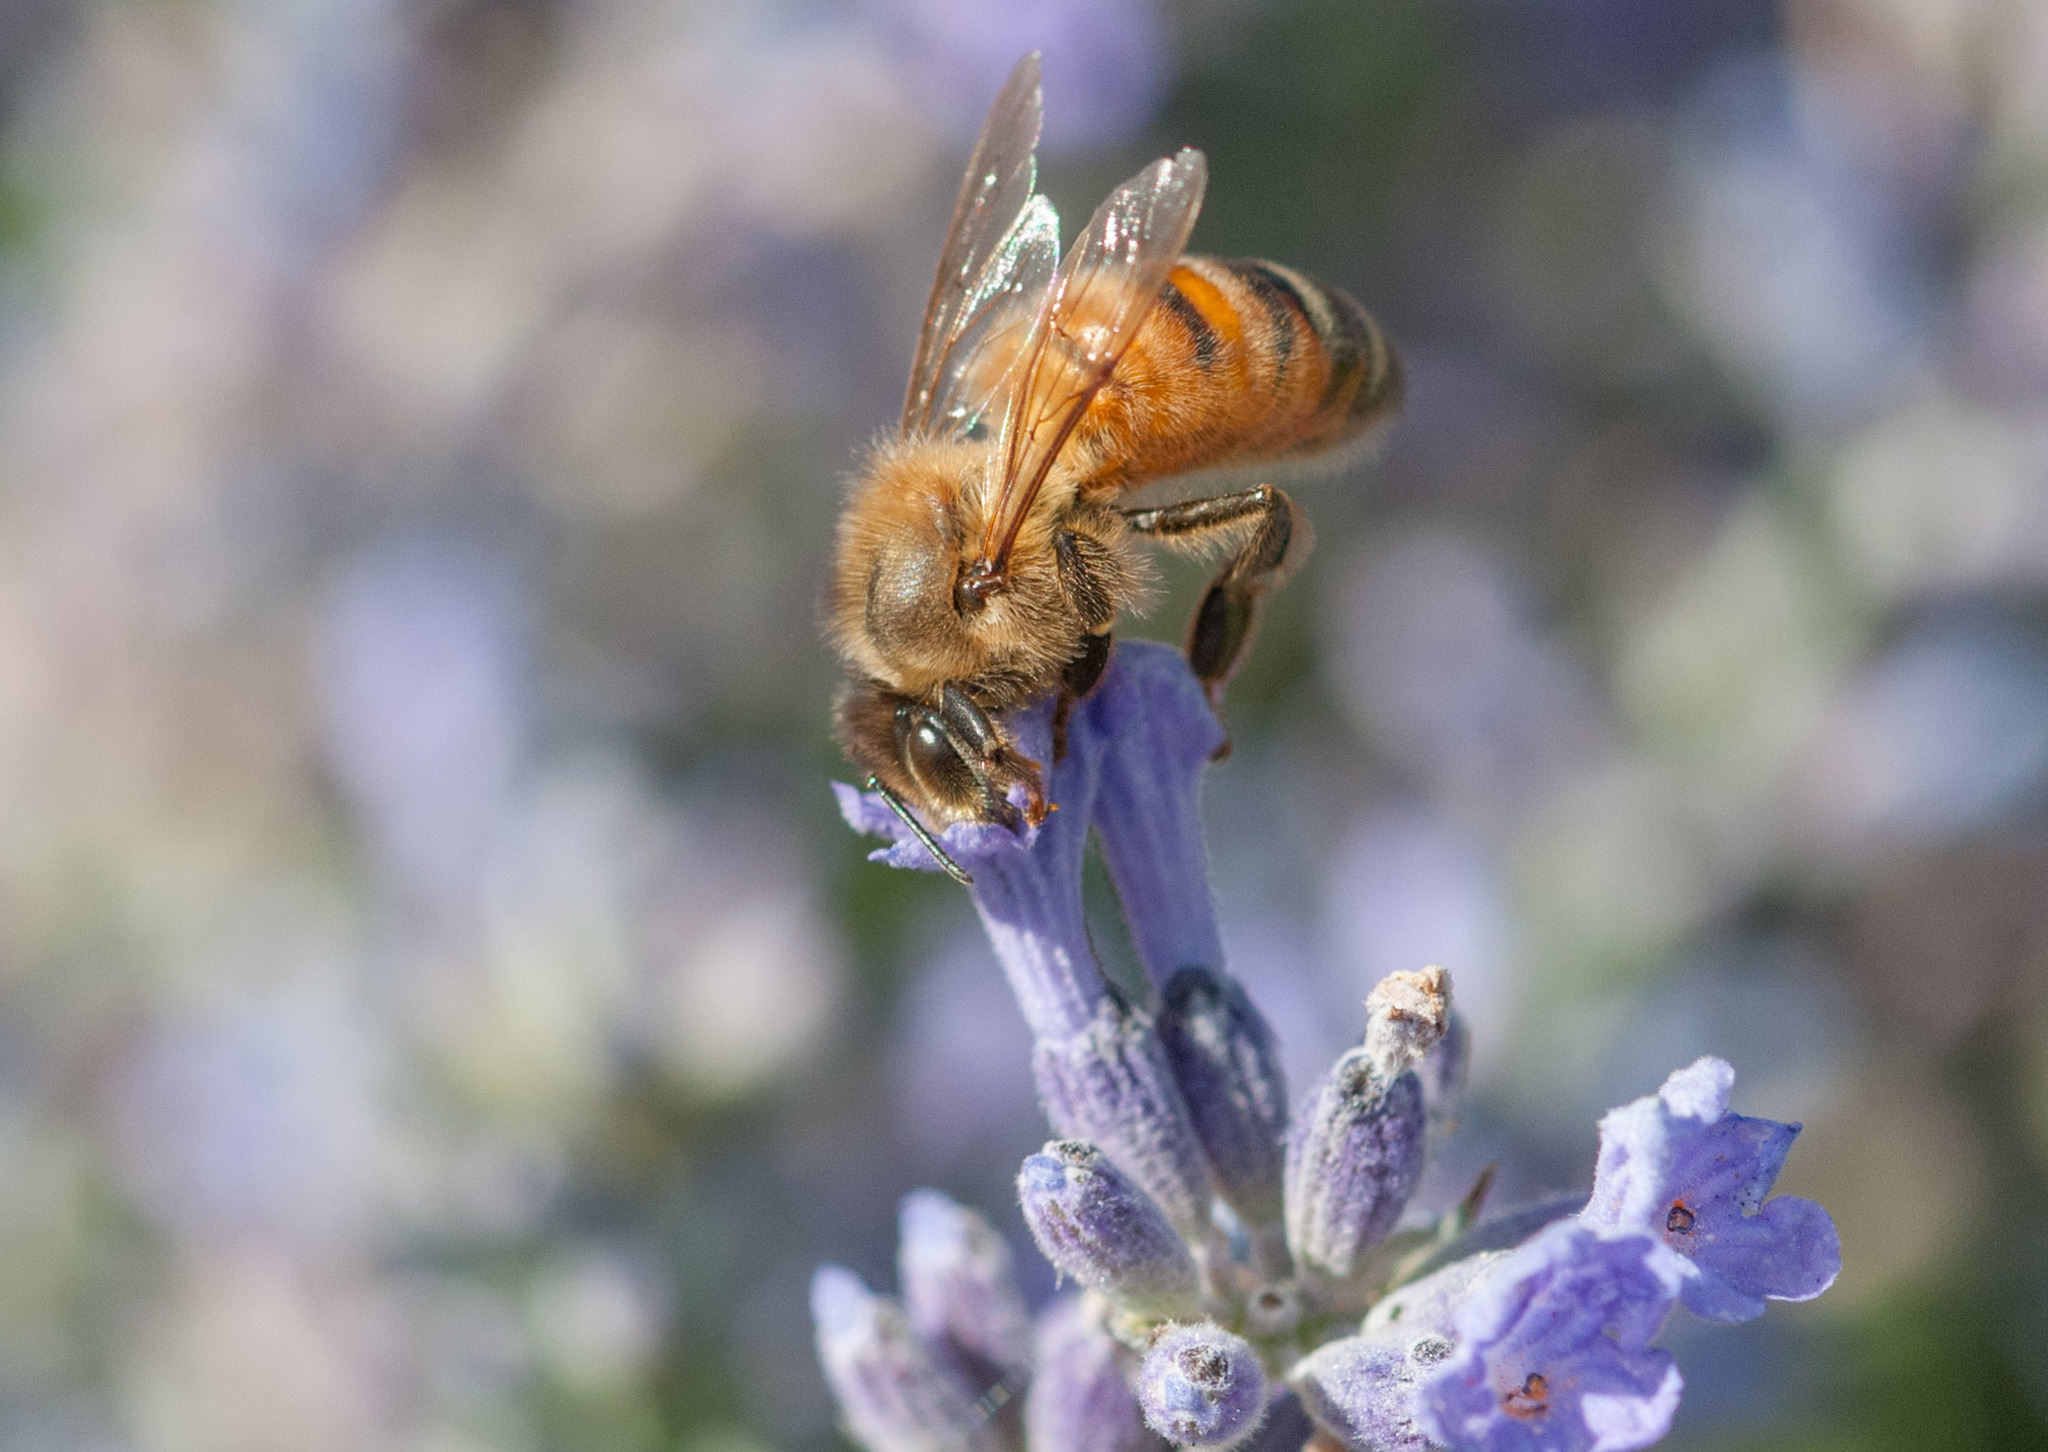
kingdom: Animalia
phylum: Arthropoda
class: Insecta
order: Hymenoptera
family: Apidae
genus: Apis
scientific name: Apis mellifera
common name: Honey bee
